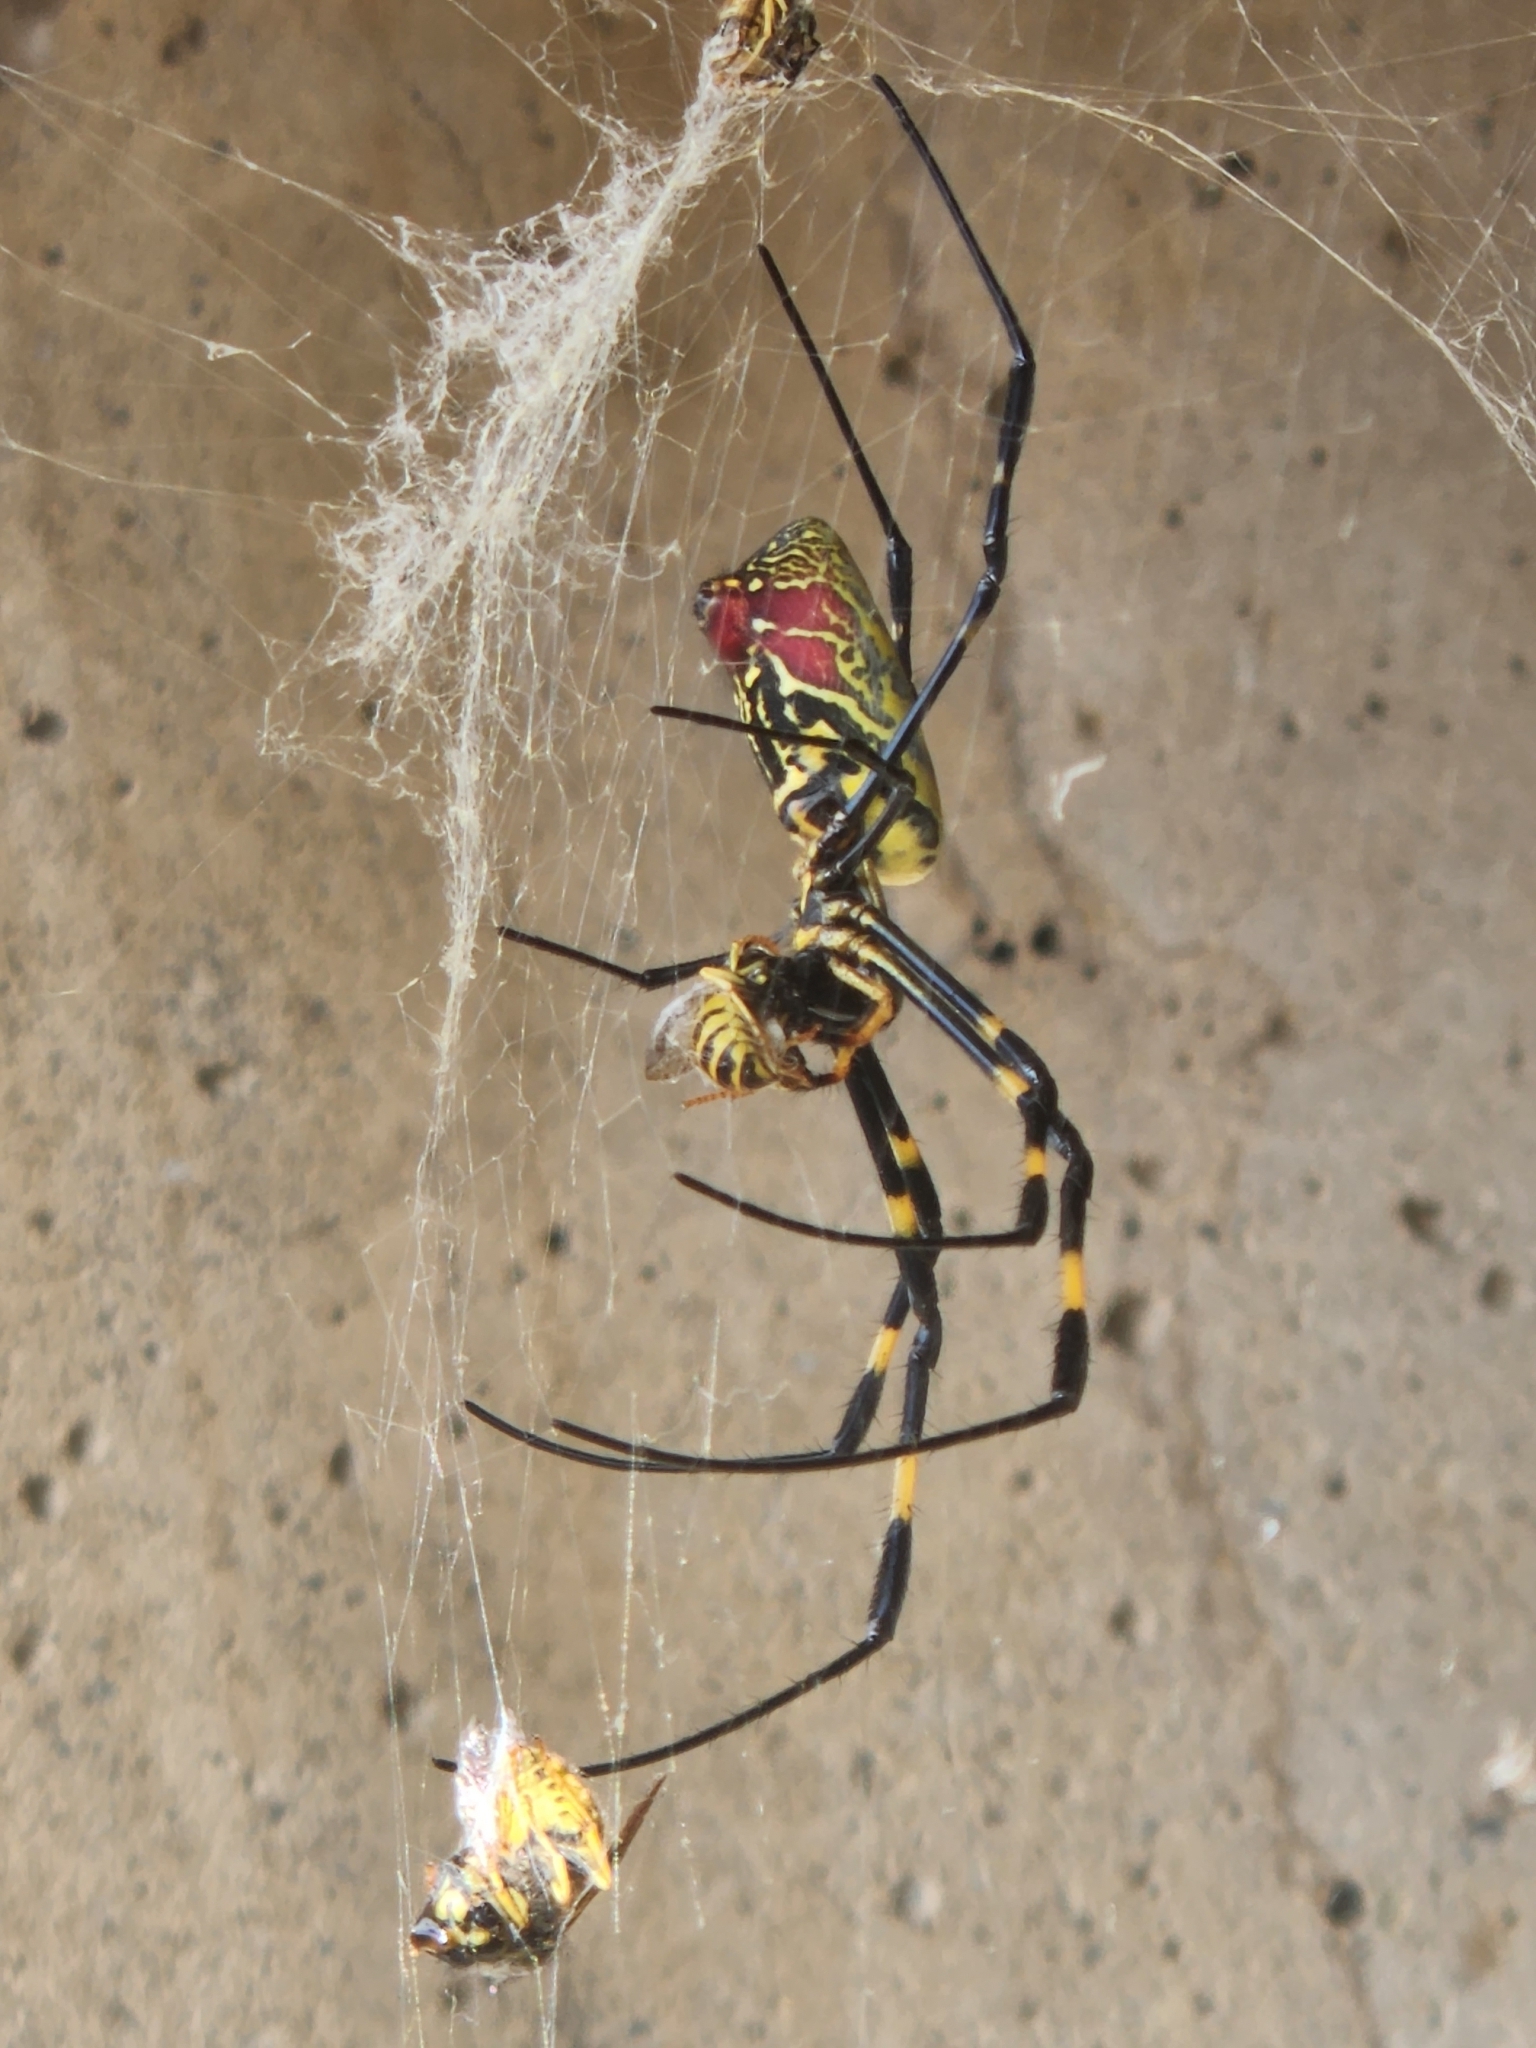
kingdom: Animalia
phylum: Arthropoda
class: Arachnida
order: Araneae
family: Araneidae
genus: Trichonephila
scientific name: Trichonephila clavata
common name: Jorō spider
